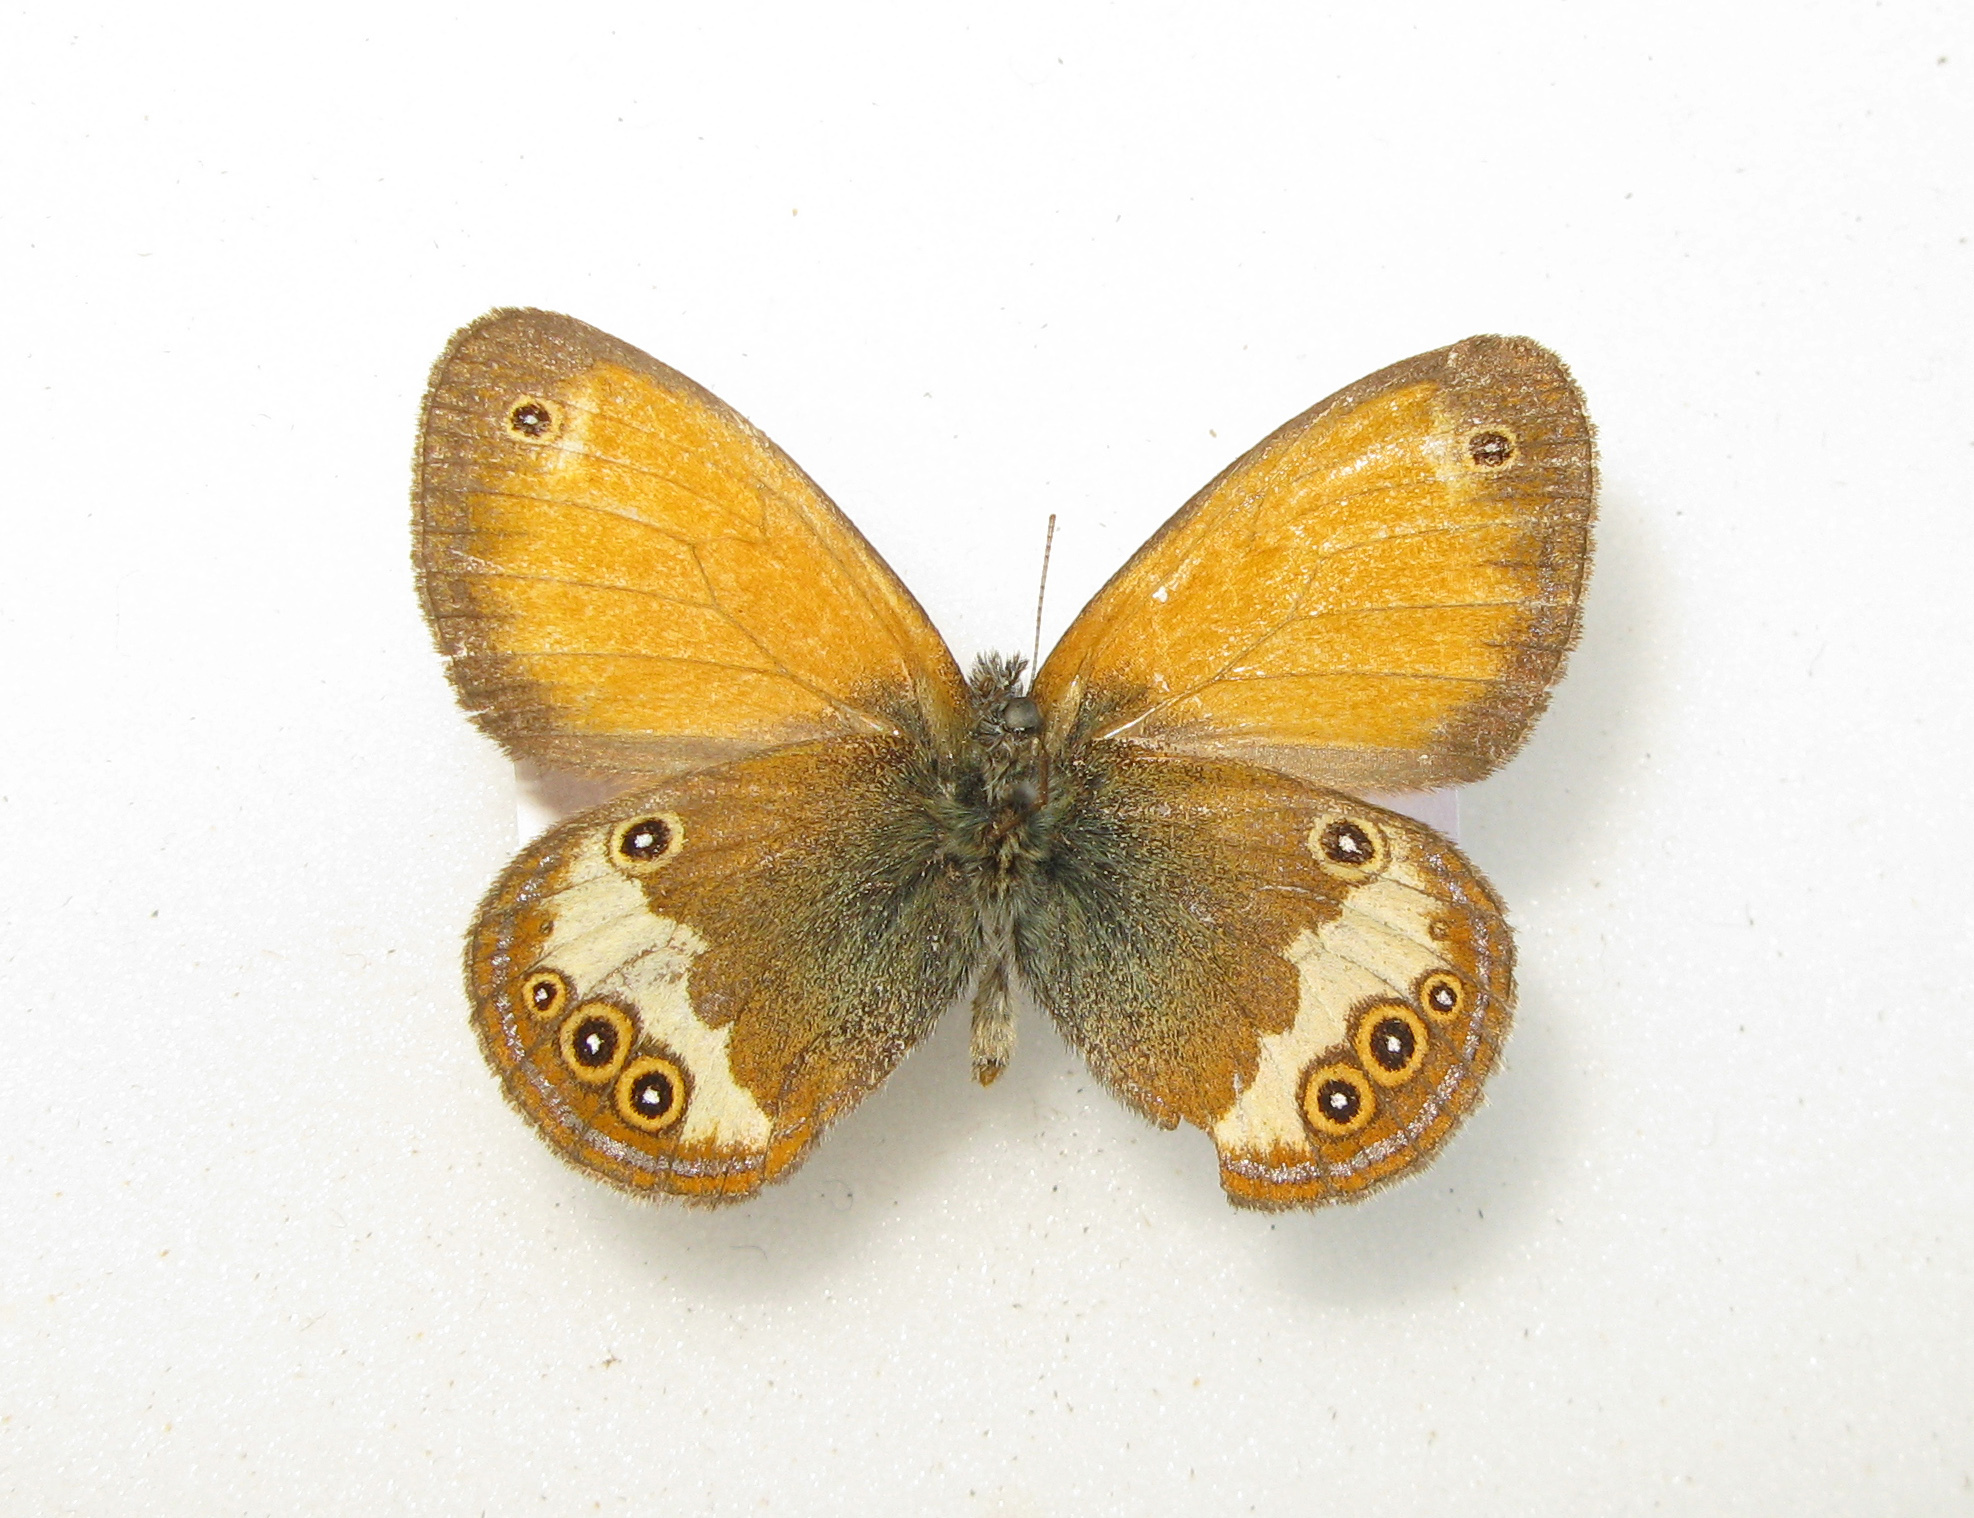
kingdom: Animalia
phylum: Arthropoda
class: Insecta
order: Lepidoptera
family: Nymphalidae
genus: Coenonympha
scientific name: Coenonympha arcania
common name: Pearly heath
